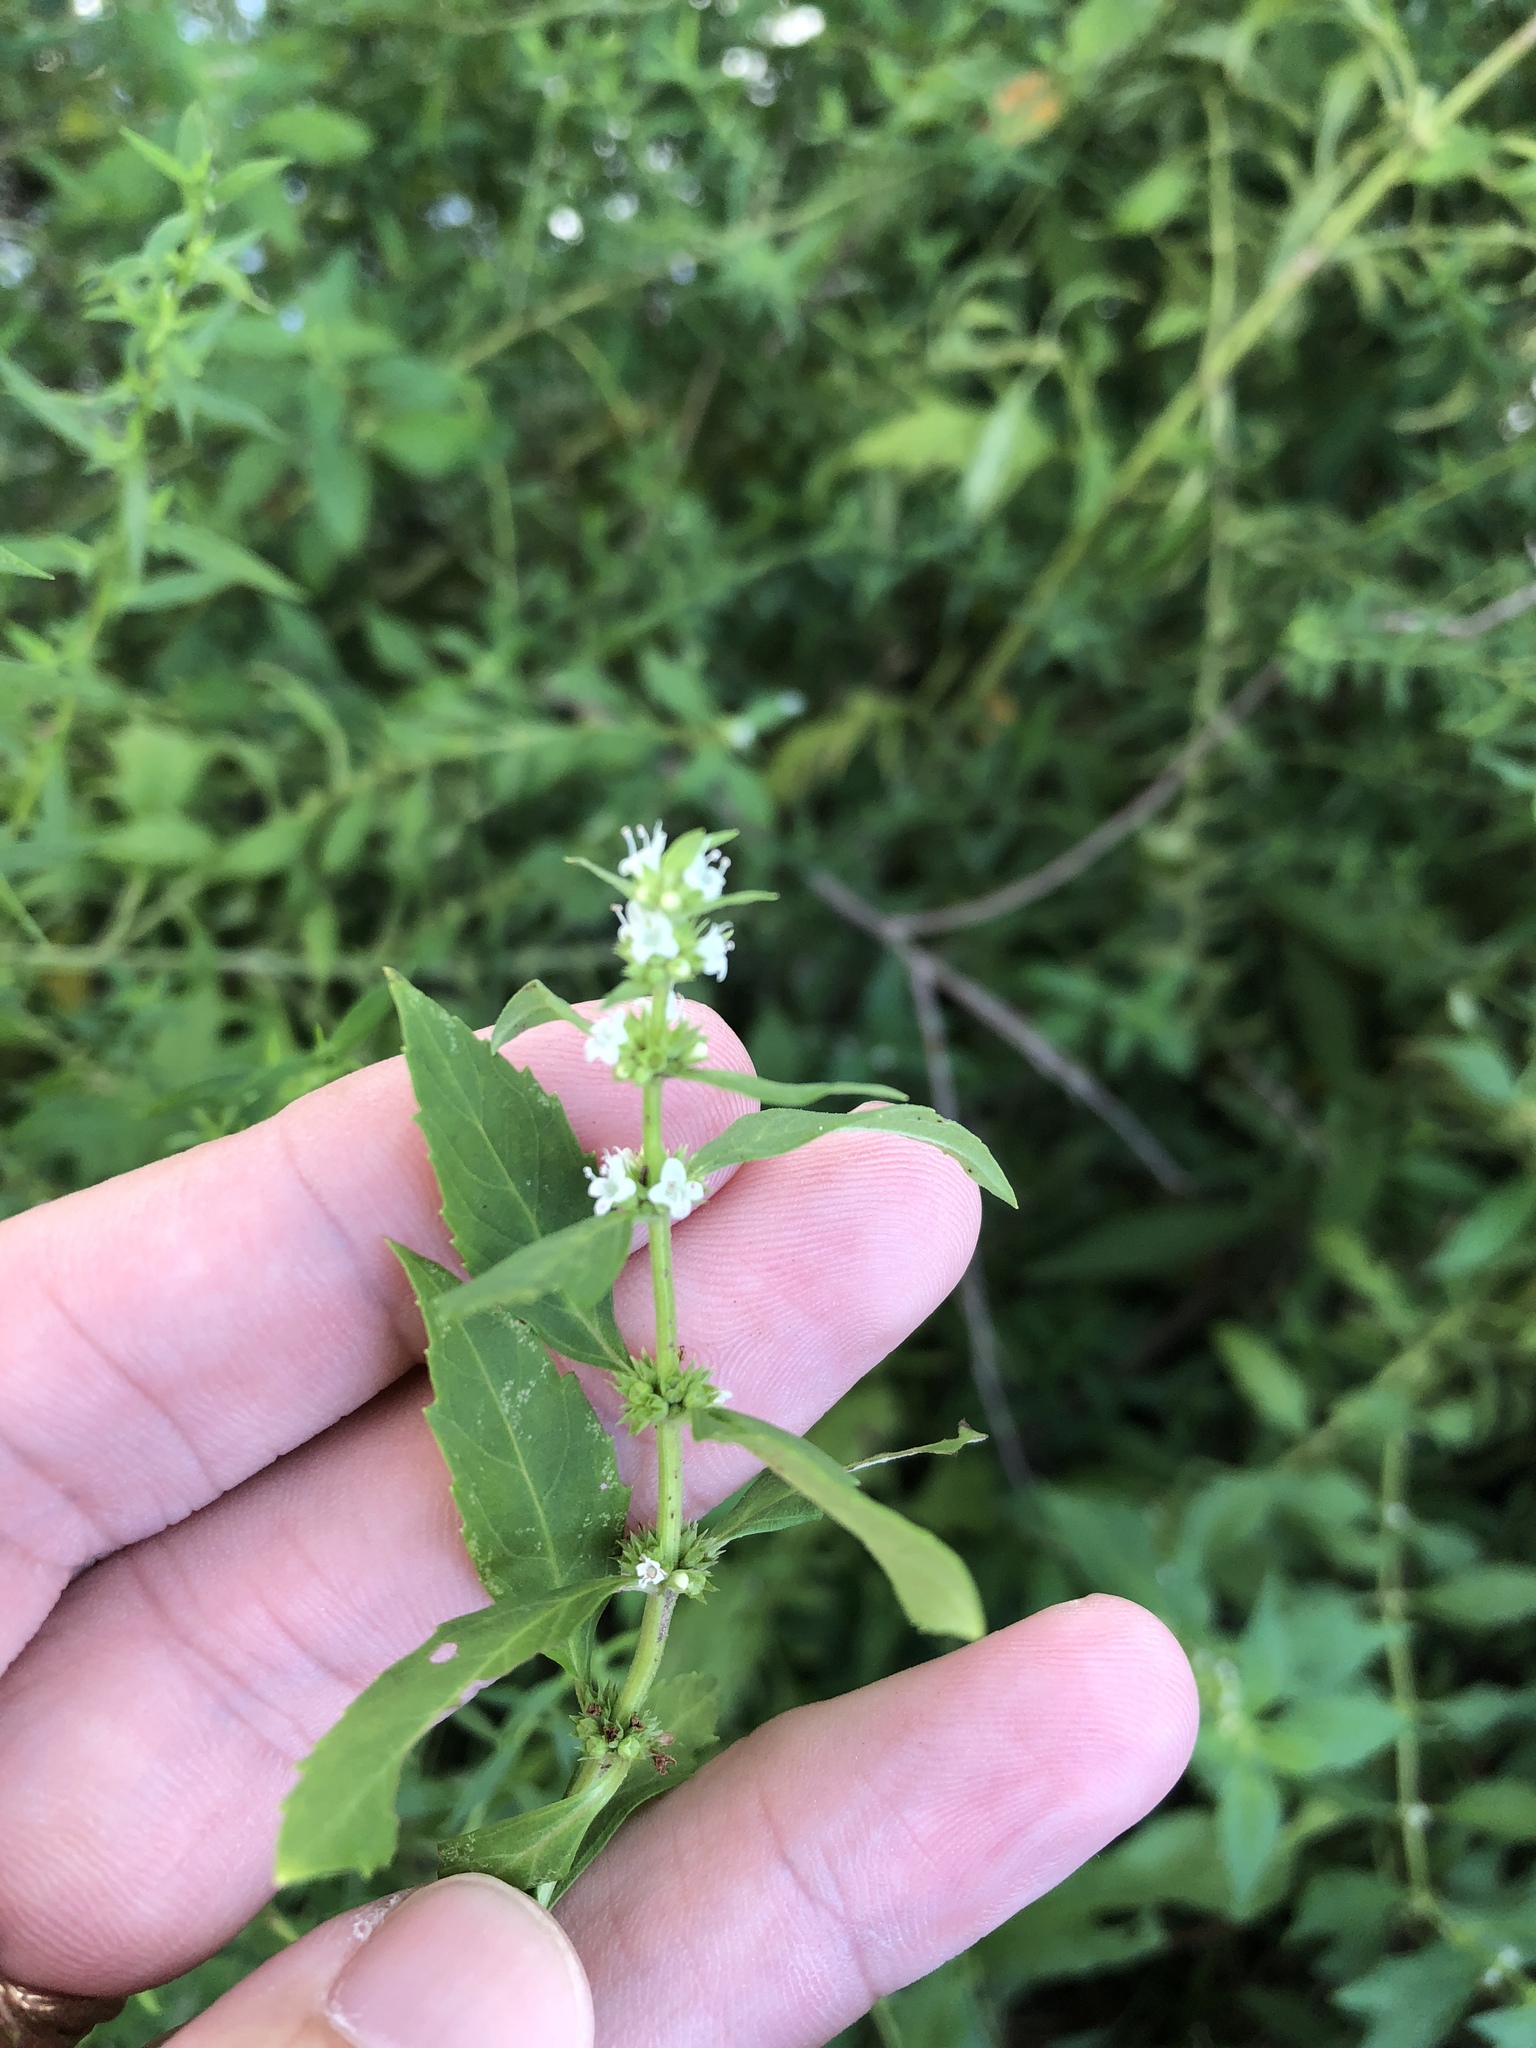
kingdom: Plantae
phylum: Tracheophyta
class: Magnoliopsida
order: Lamiales
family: Lamiaceae
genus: Lycopus
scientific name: Lycopus americanus
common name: American bugleweed
